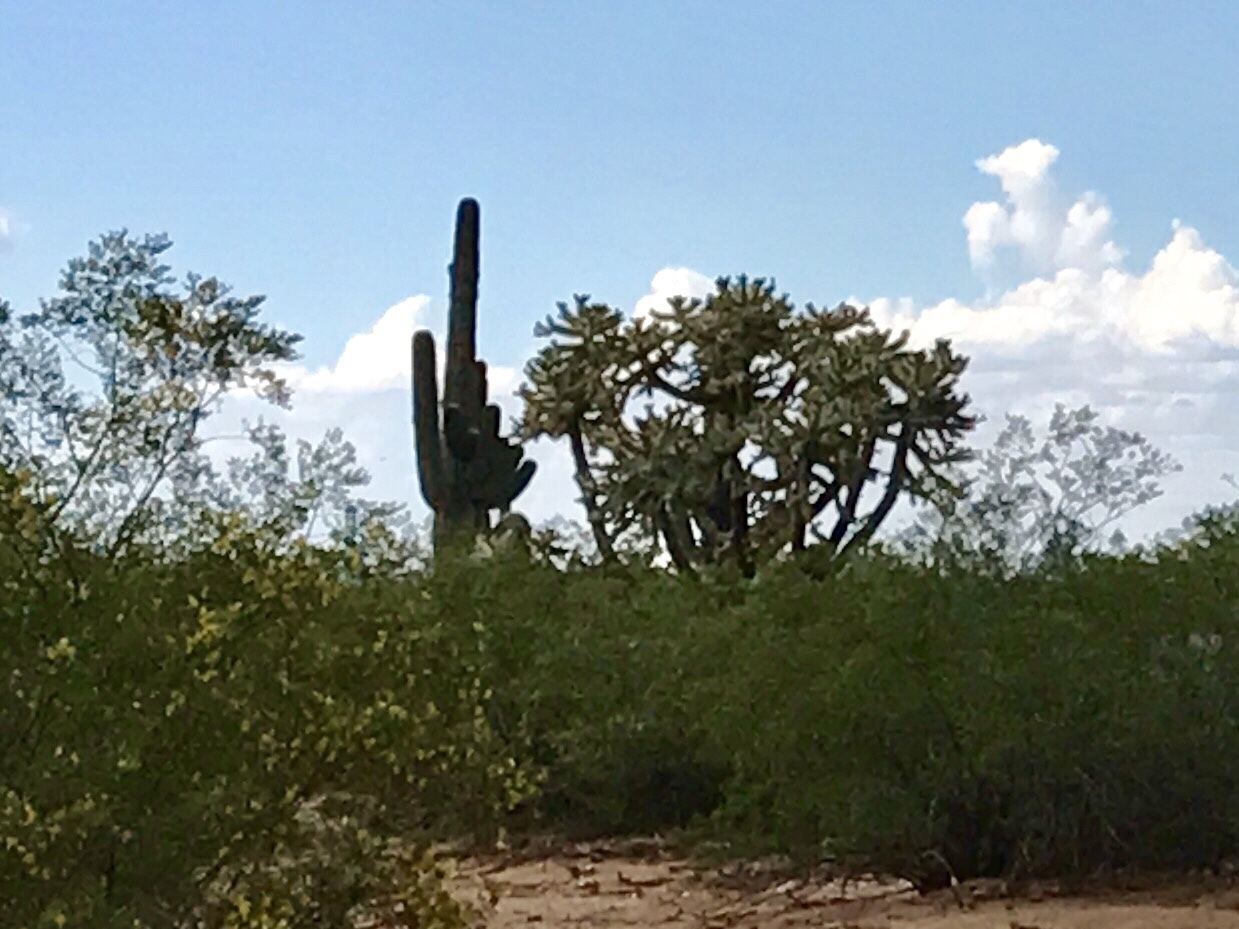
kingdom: Plantae
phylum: Tracheophyta
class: Magnoliopsida
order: Caryophyllales
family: Cactaceae
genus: Carnegiea
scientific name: Carnegiea gigantea
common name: Saguaro
